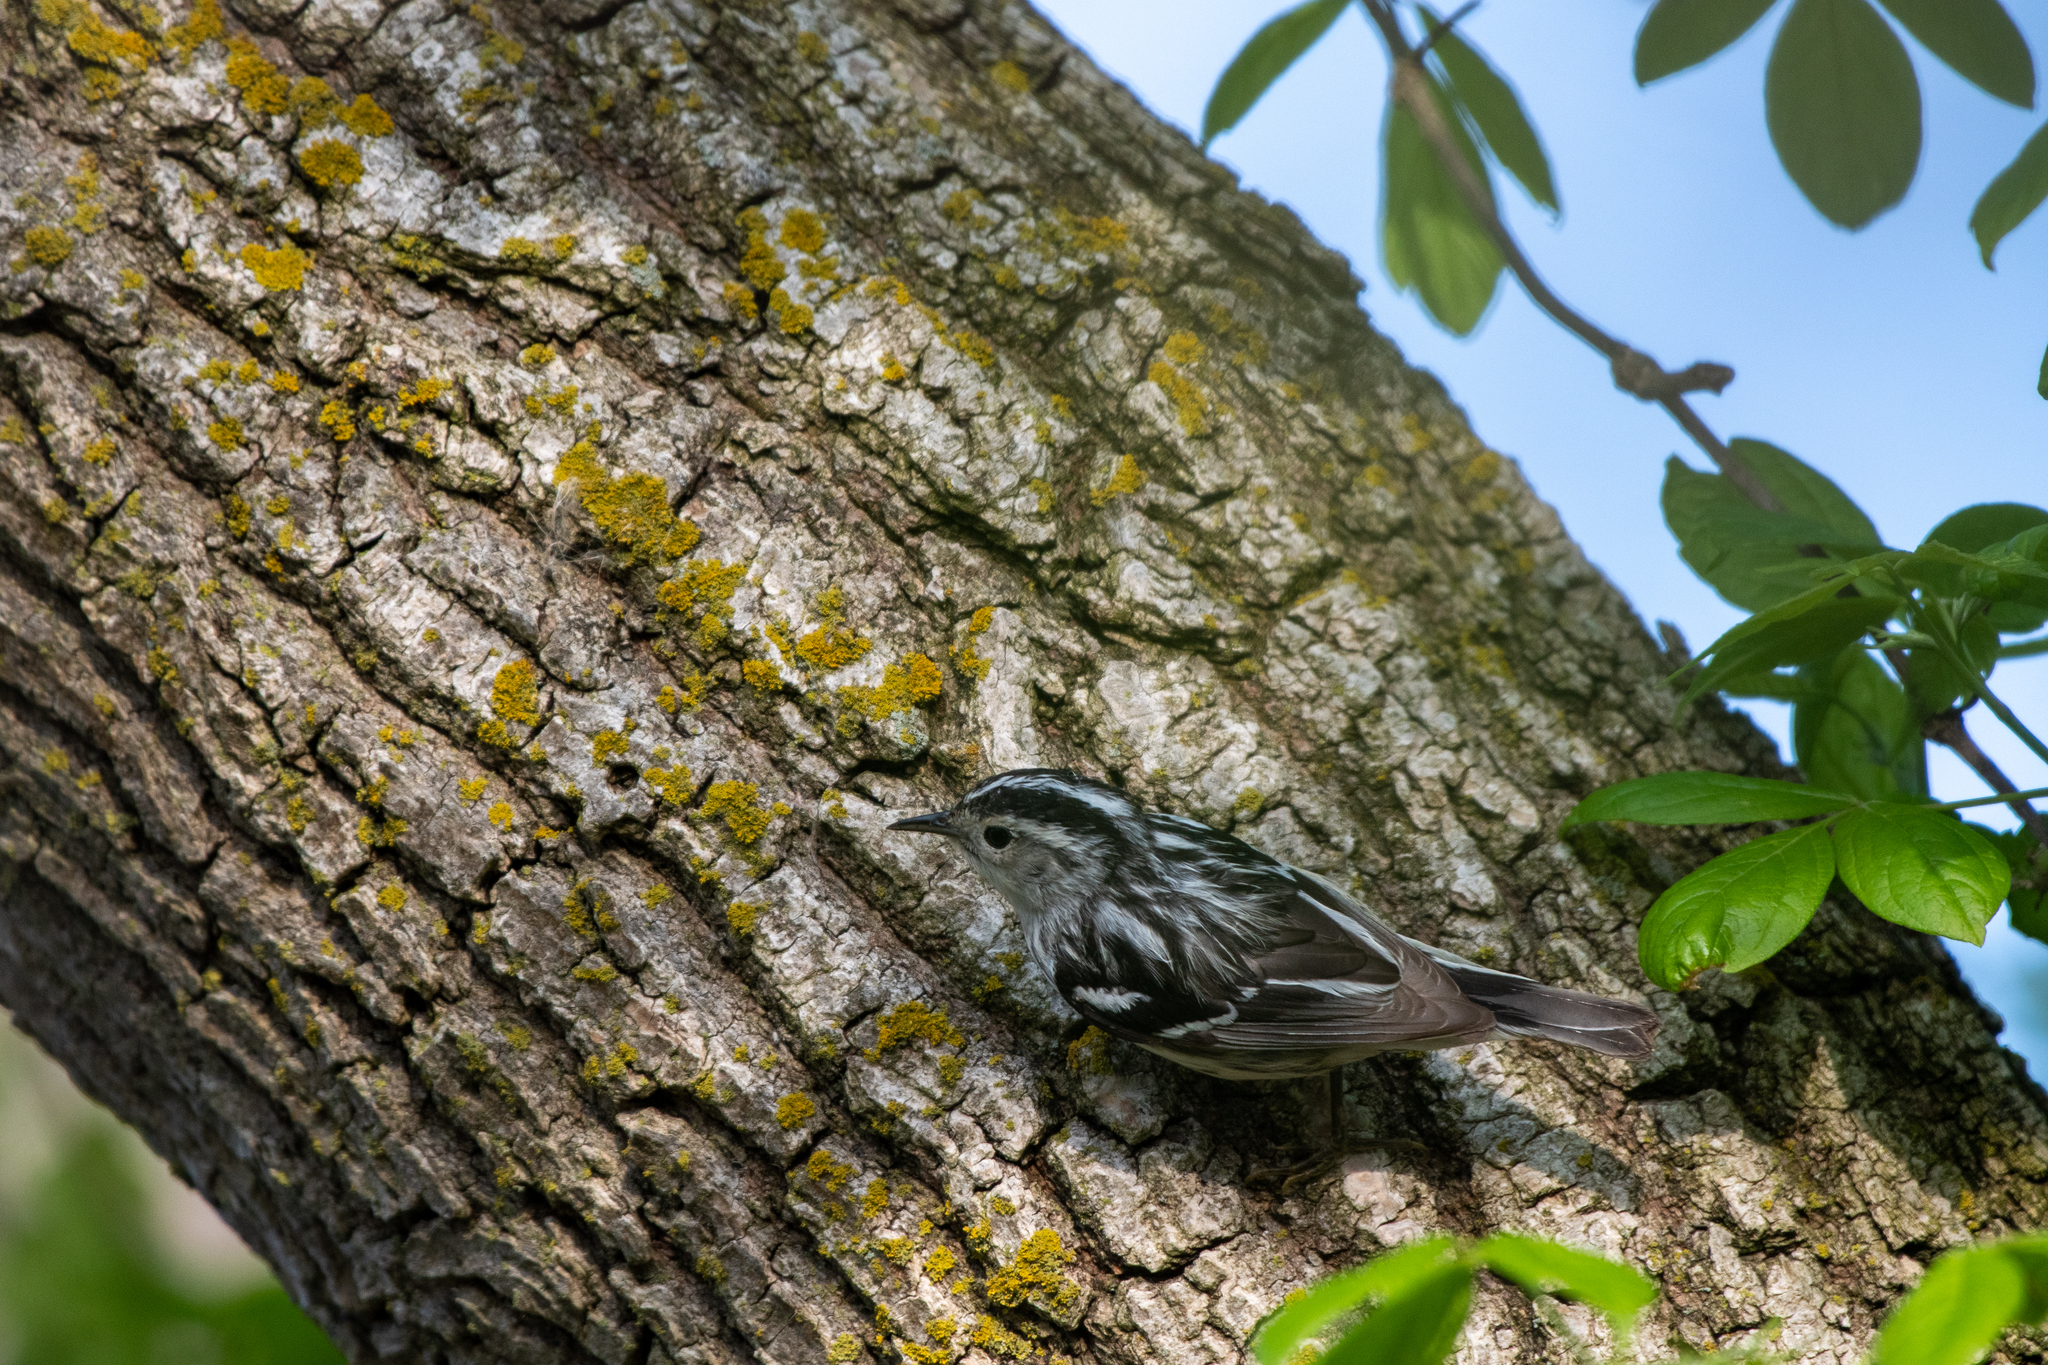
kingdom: Animalia
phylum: Chordata
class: Aves
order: Passeriformes
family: Parulidae
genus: Mniotilta
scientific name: Mniotilta varia
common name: Black-and-white warbler
